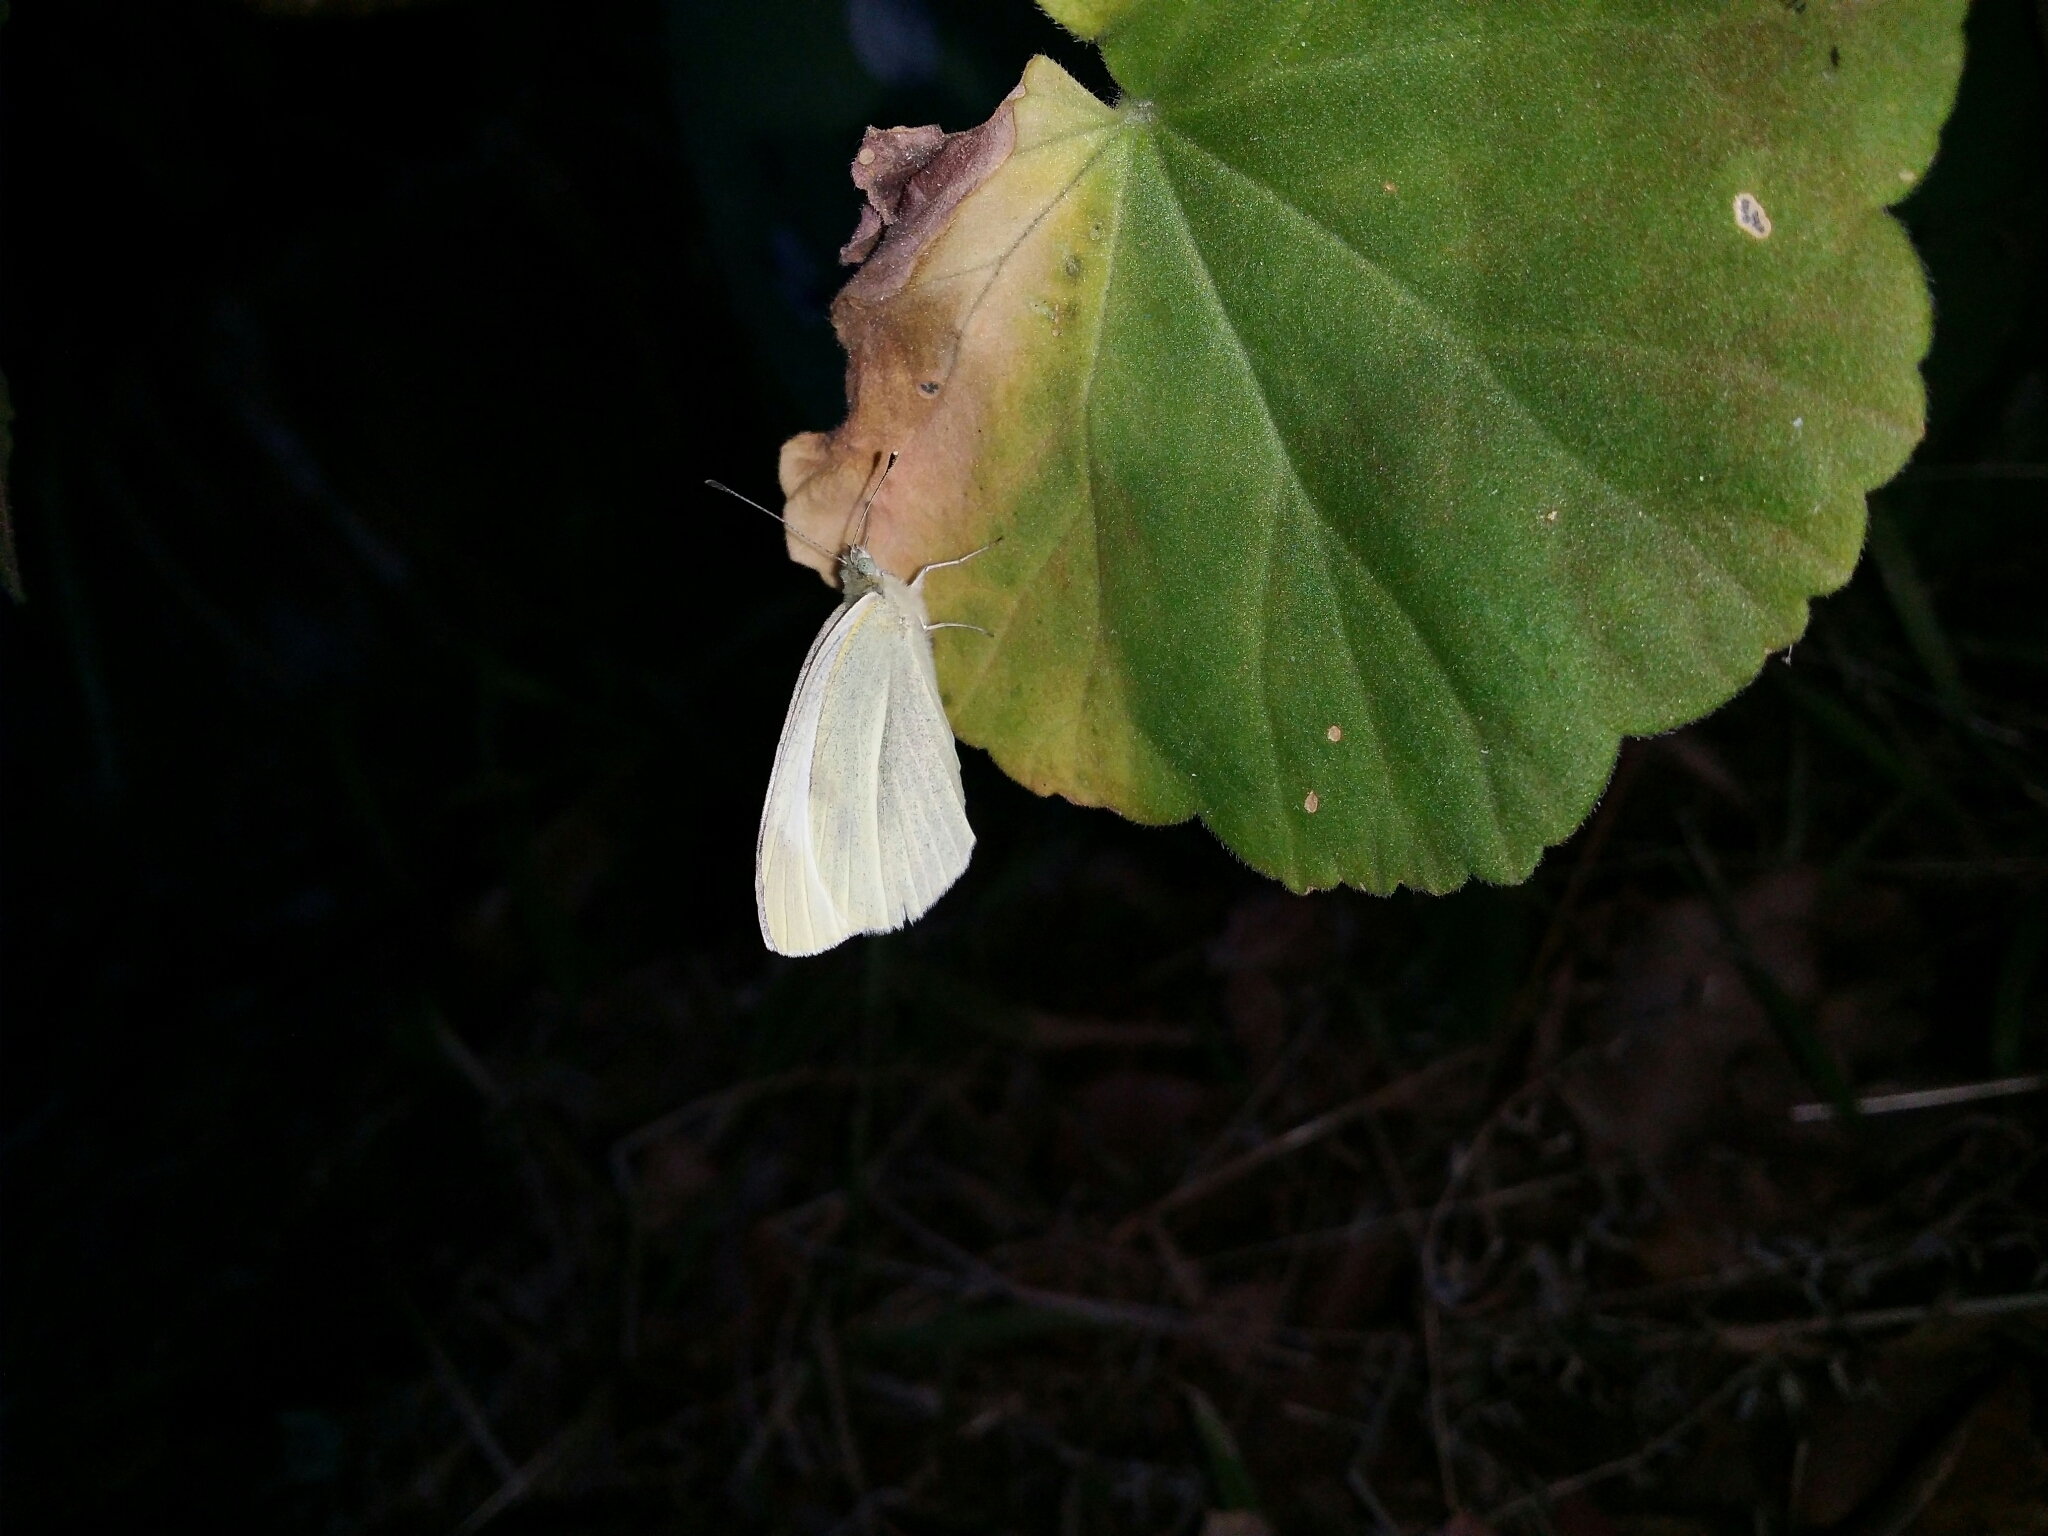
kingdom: Animalia
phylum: Arthropoda
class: Insecta
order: Lepidoptera
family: Pieridae
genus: Pieris
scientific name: Pieris rapae
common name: Small white
